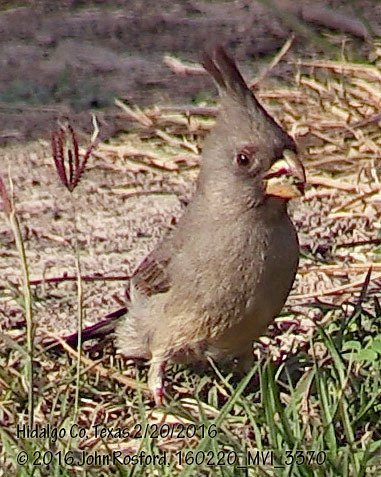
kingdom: Animalia
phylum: Chordata
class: Aves
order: Passeriformes
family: Cardinalidae
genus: Cardinalis
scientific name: Cardinalis sinuatus
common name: Pyrrhuloxia
